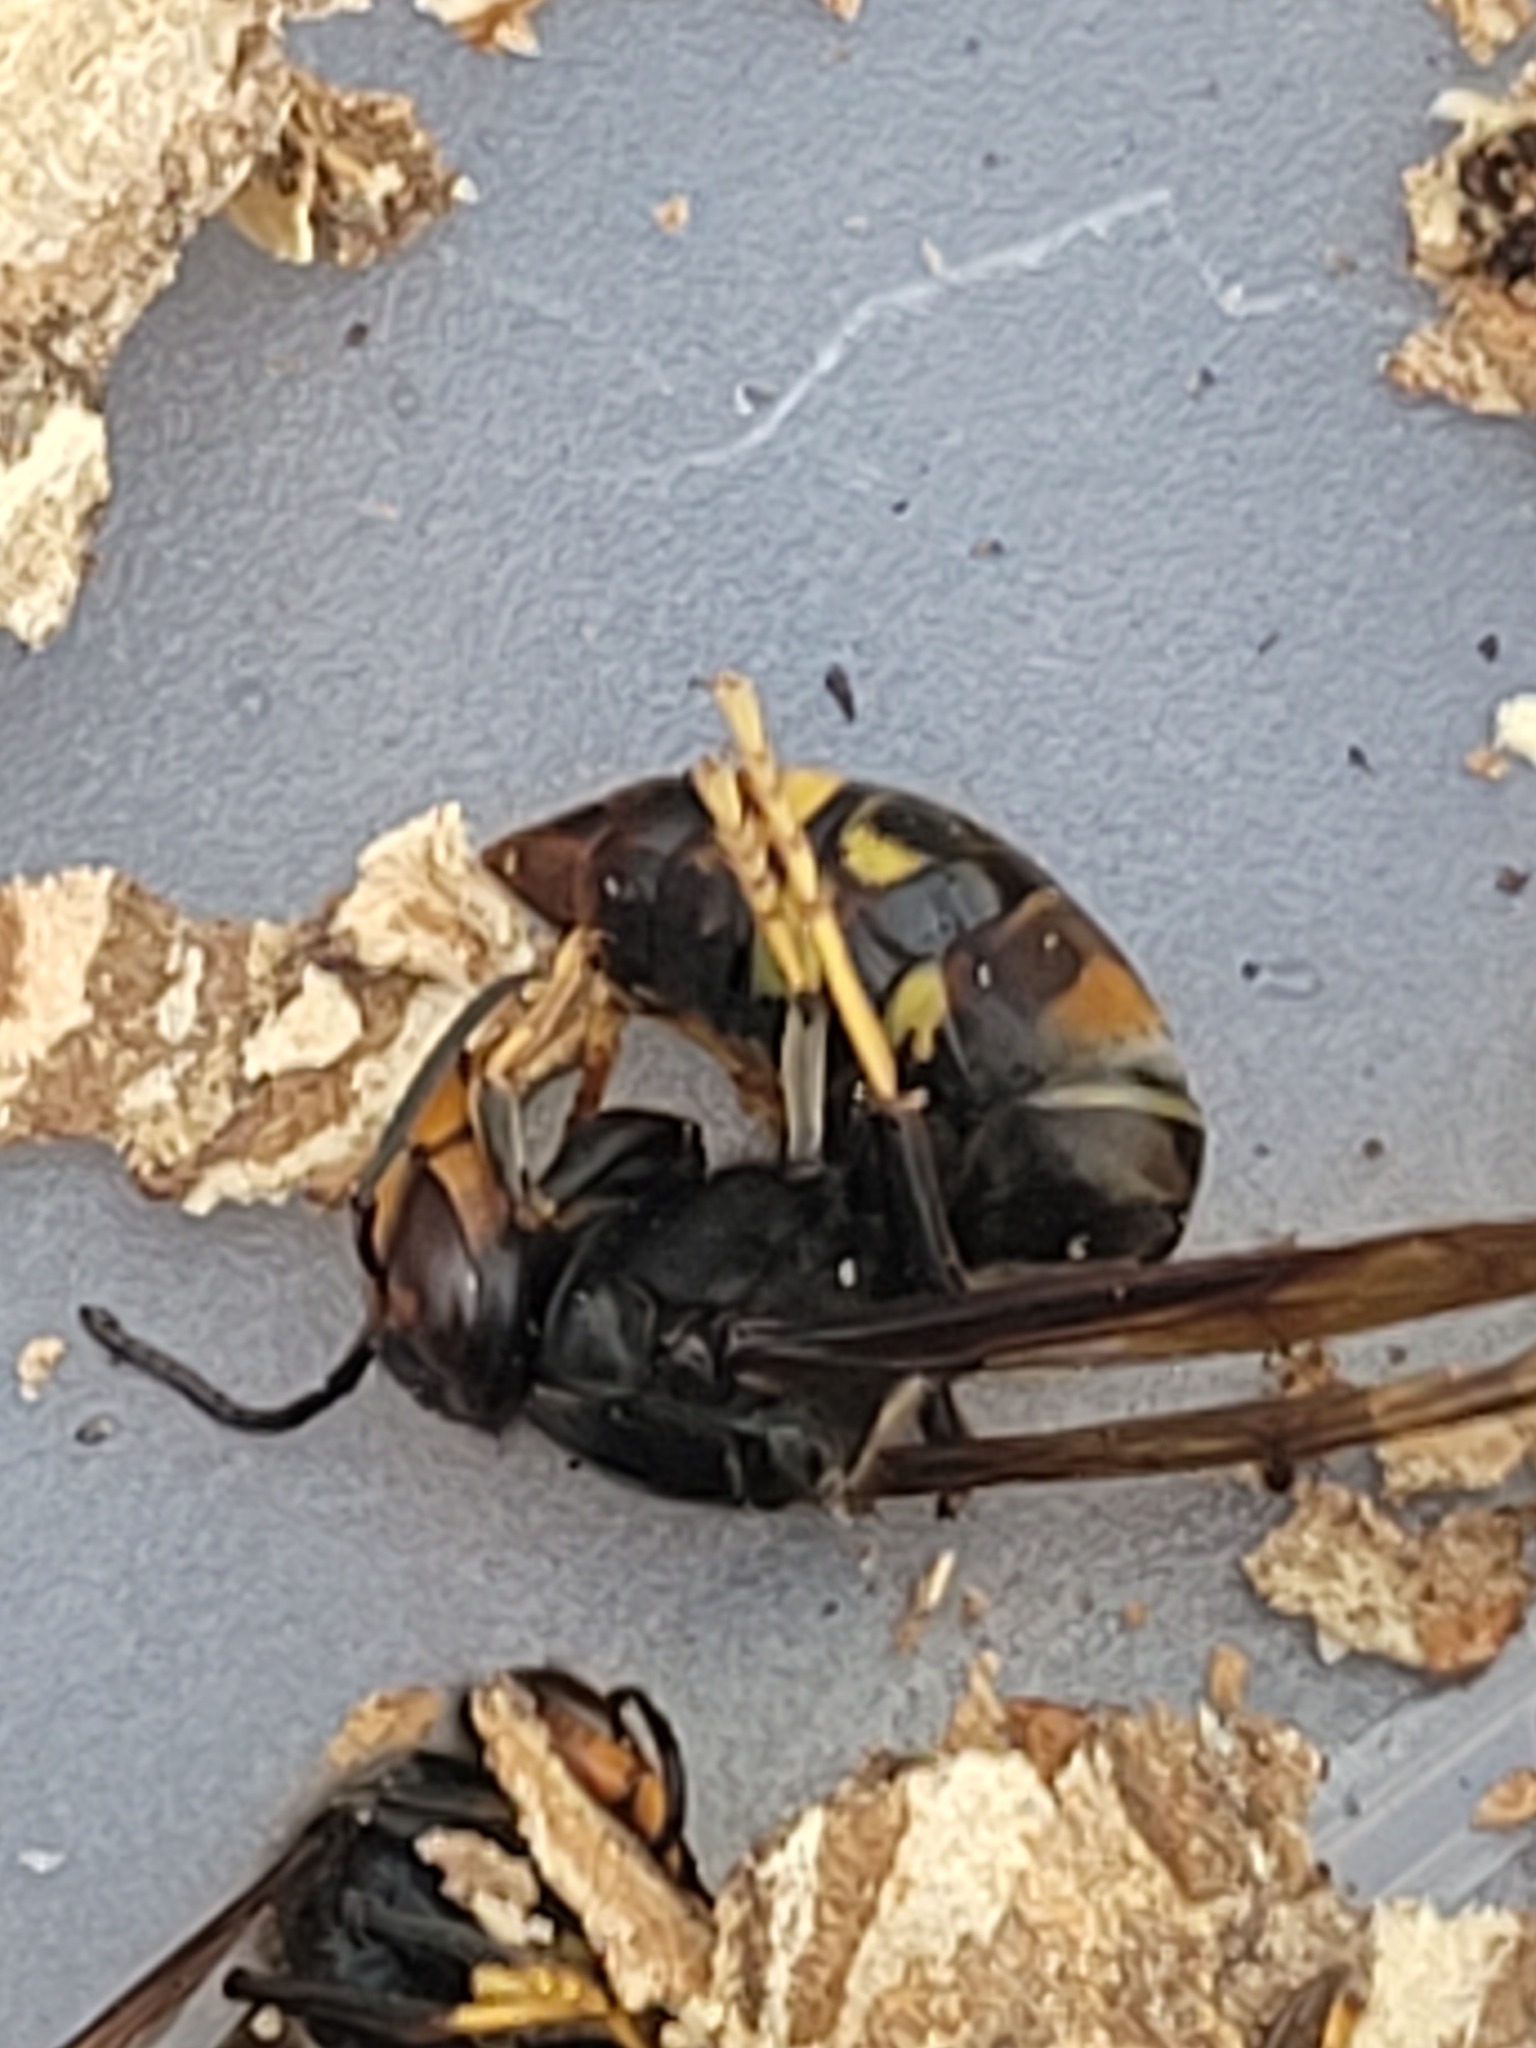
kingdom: Animalia
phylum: Arthropoda
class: Insecta
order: Hymenoptera
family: Vespidae
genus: Vespa
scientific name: Vespa velutina
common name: Asian hornet
